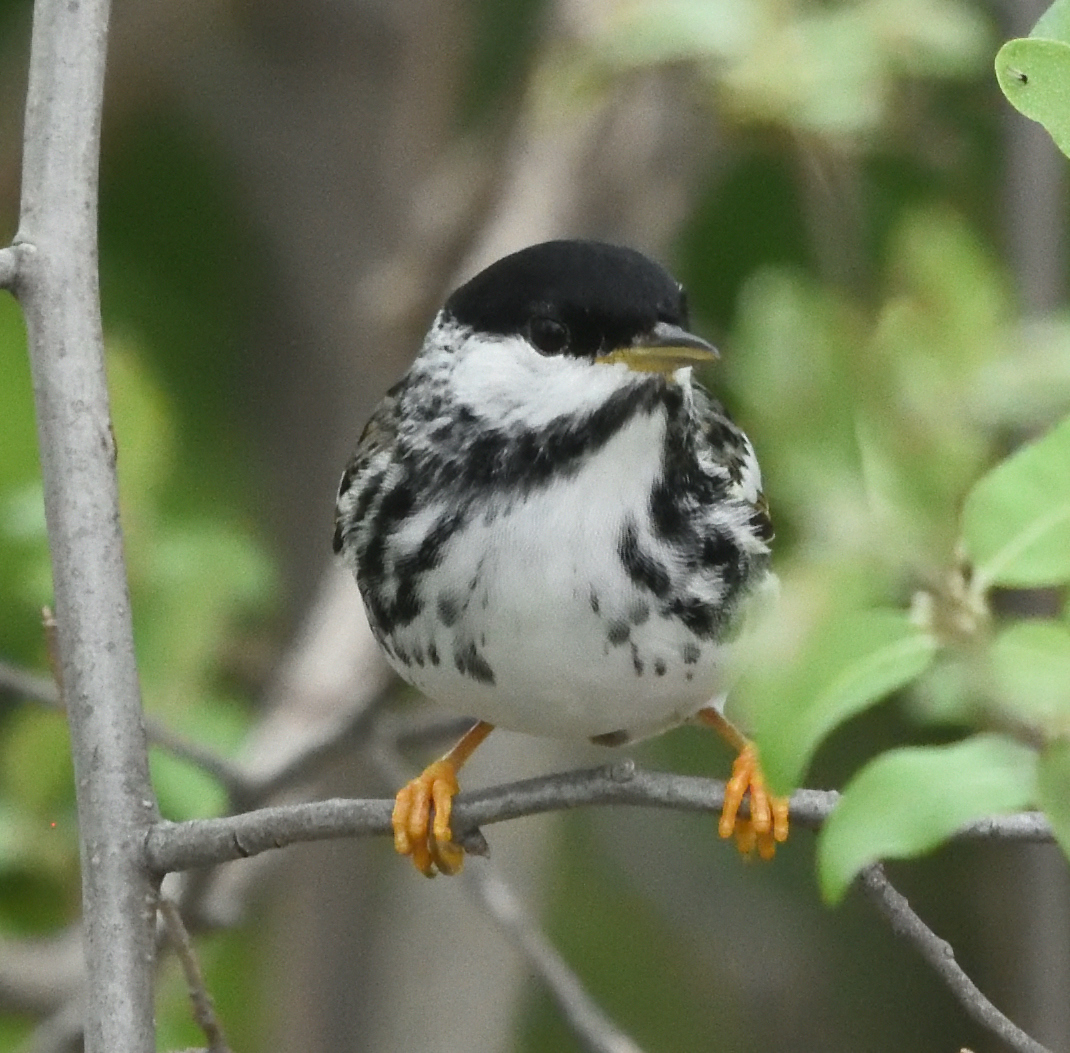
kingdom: Animalia
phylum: Chordata
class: Aves
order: Passeriformes
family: Parulidae
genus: Setophaga
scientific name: Setophaga striata
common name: Blackpoll warbler
